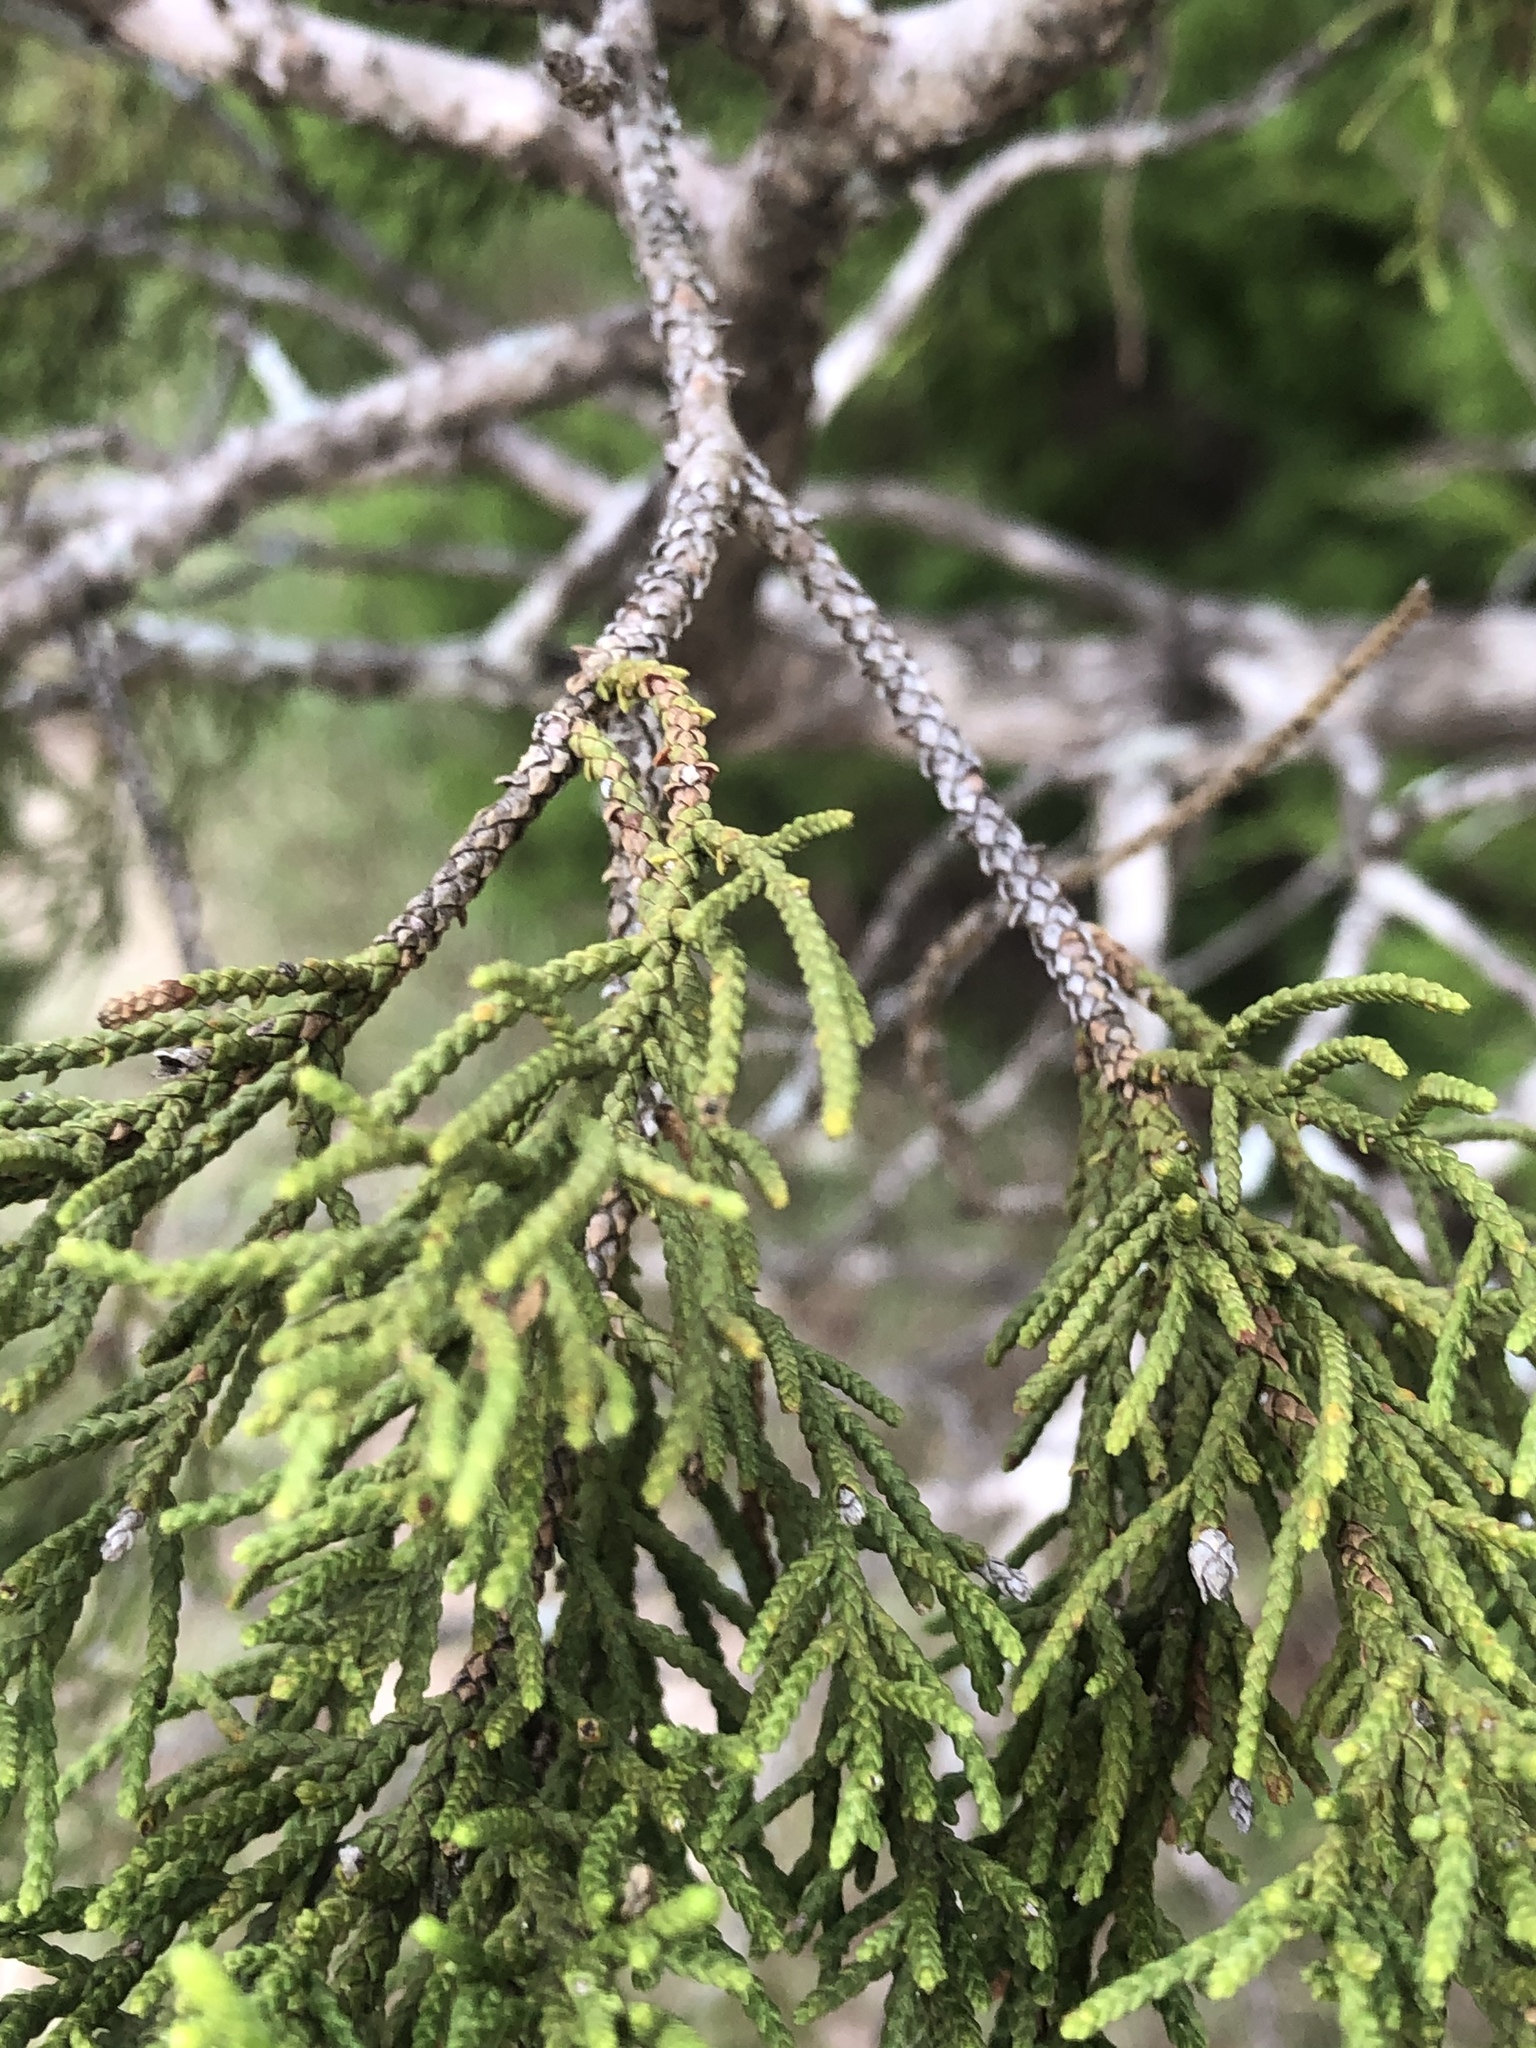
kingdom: Plantae
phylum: Tracheophyta
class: Pinopsida
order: Pinales
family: Cupressaceae
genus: Juniperus
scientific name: Juniperus ashei
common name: Mexican juniper
